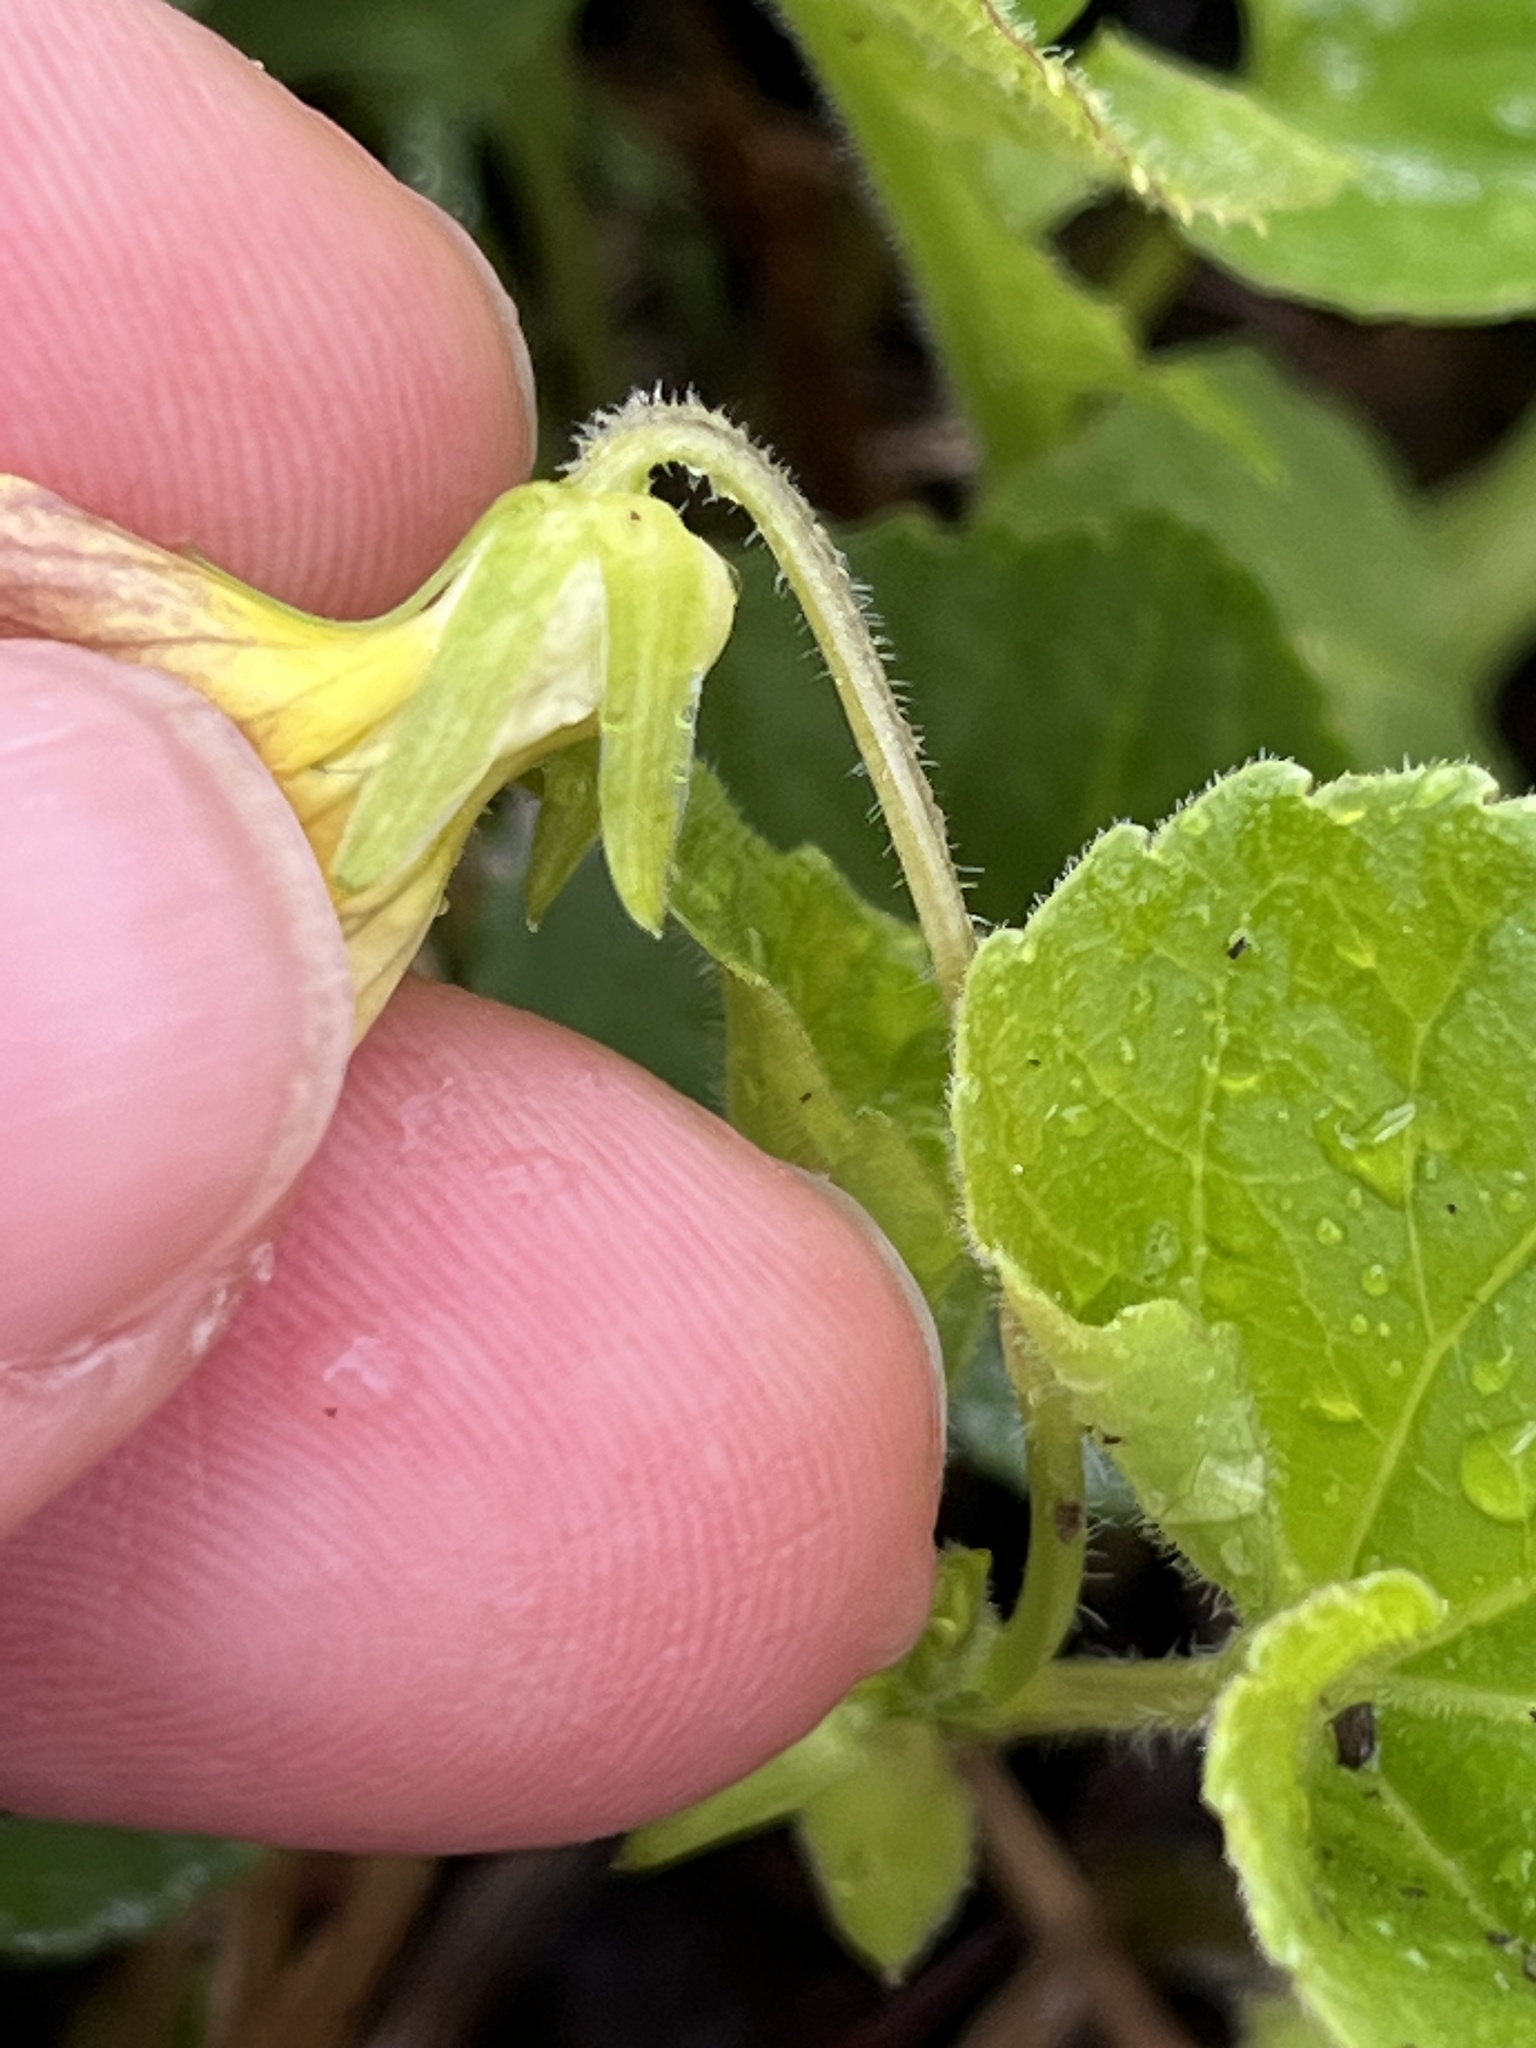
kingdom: Plantae
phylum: Tracheophyta
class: Magnoliopsida
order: Malpighiales
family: Violaceae
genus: Viola
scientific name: Viola eriocarpa
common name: Smooth yellow violet
